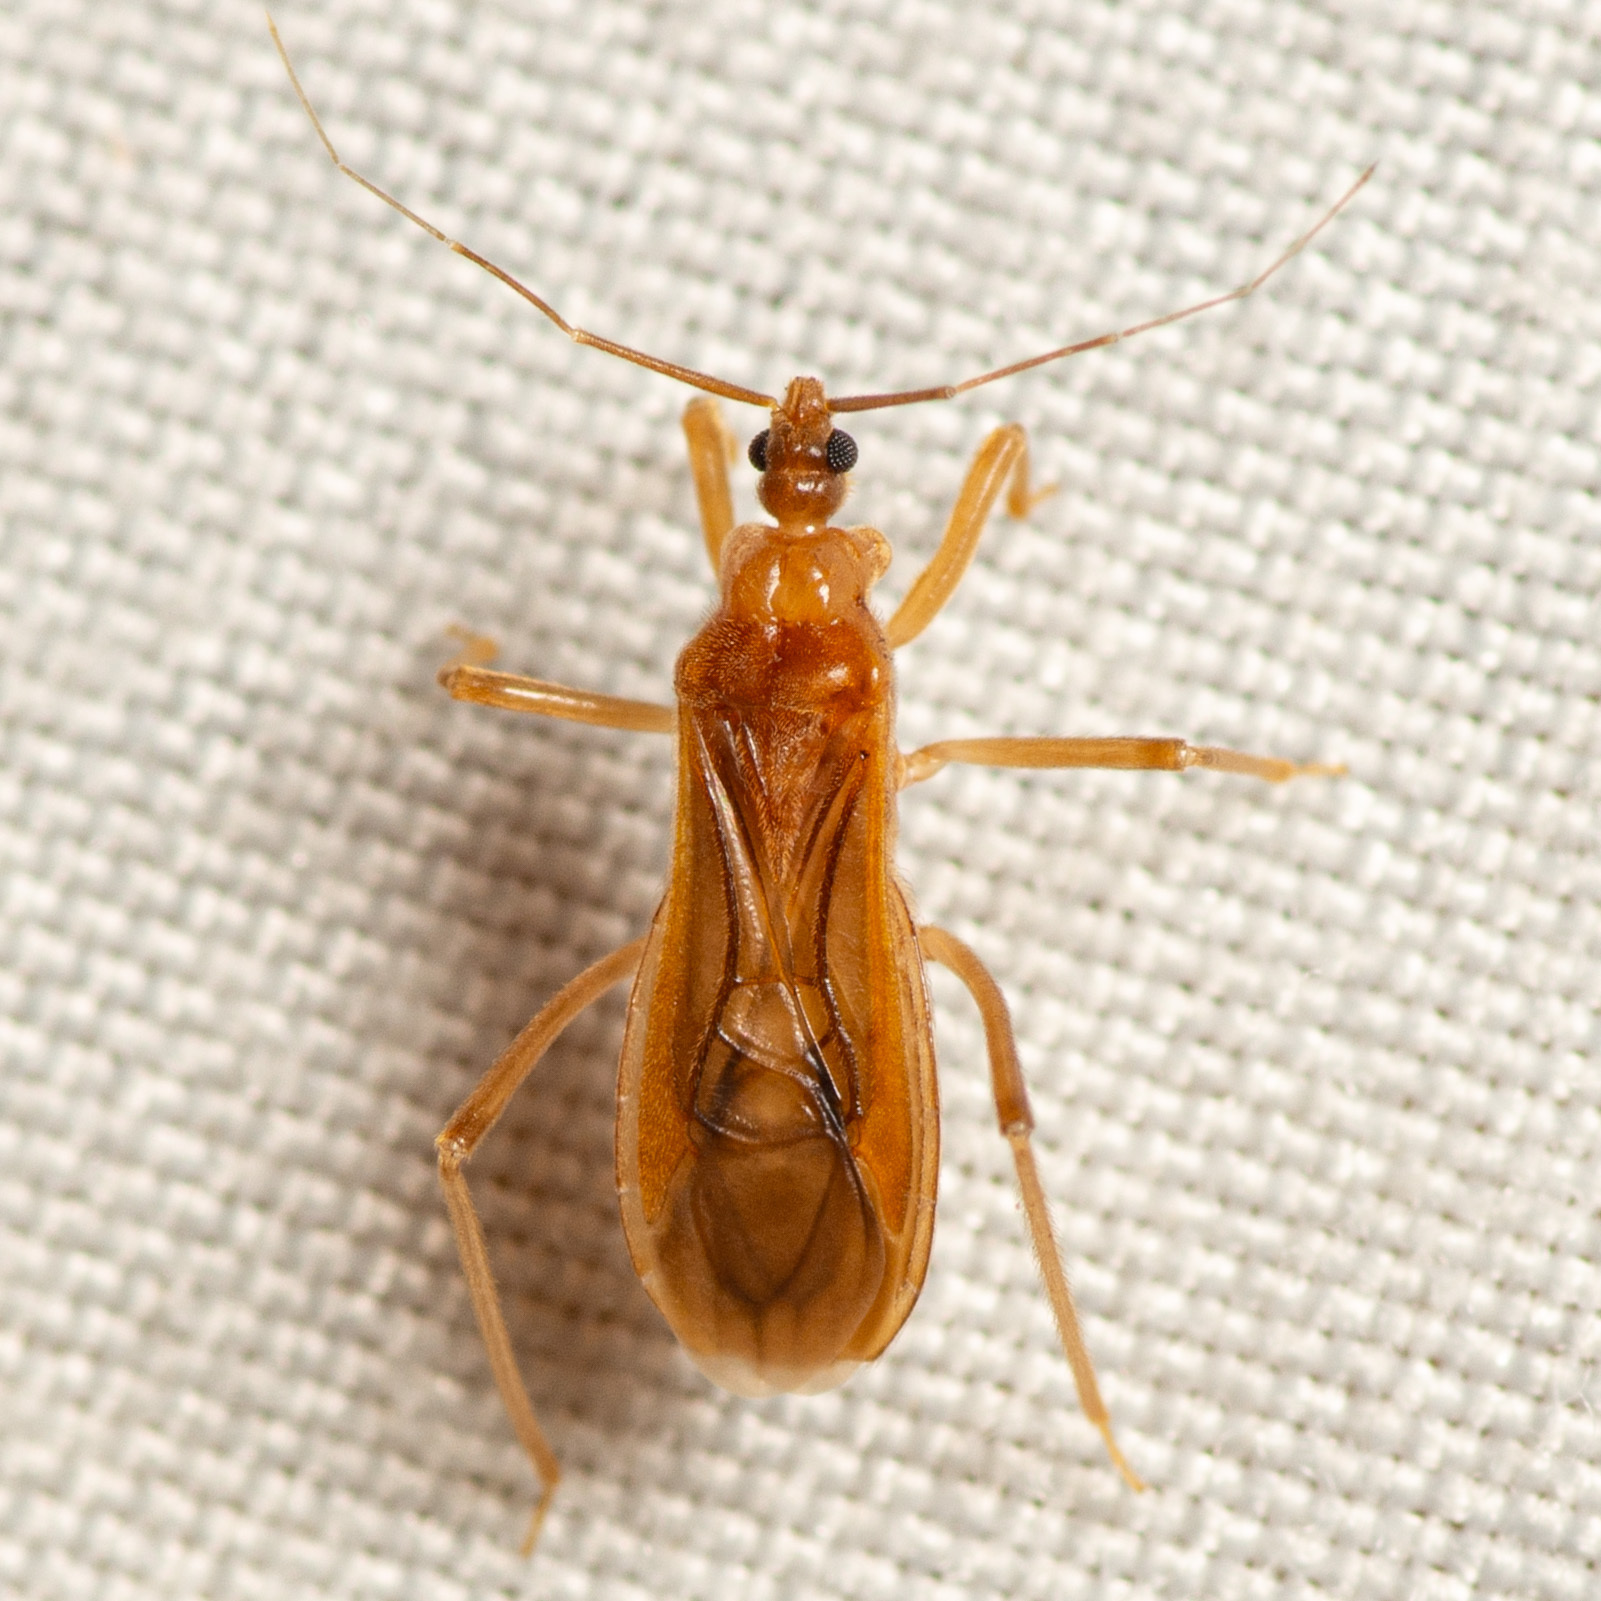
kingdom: Animalia
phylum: Arthropoda
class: Insecta
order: Hemiptera
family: Reduviidae
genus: Oncerotrachelus
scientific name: Oncerotrachelus pallidus
